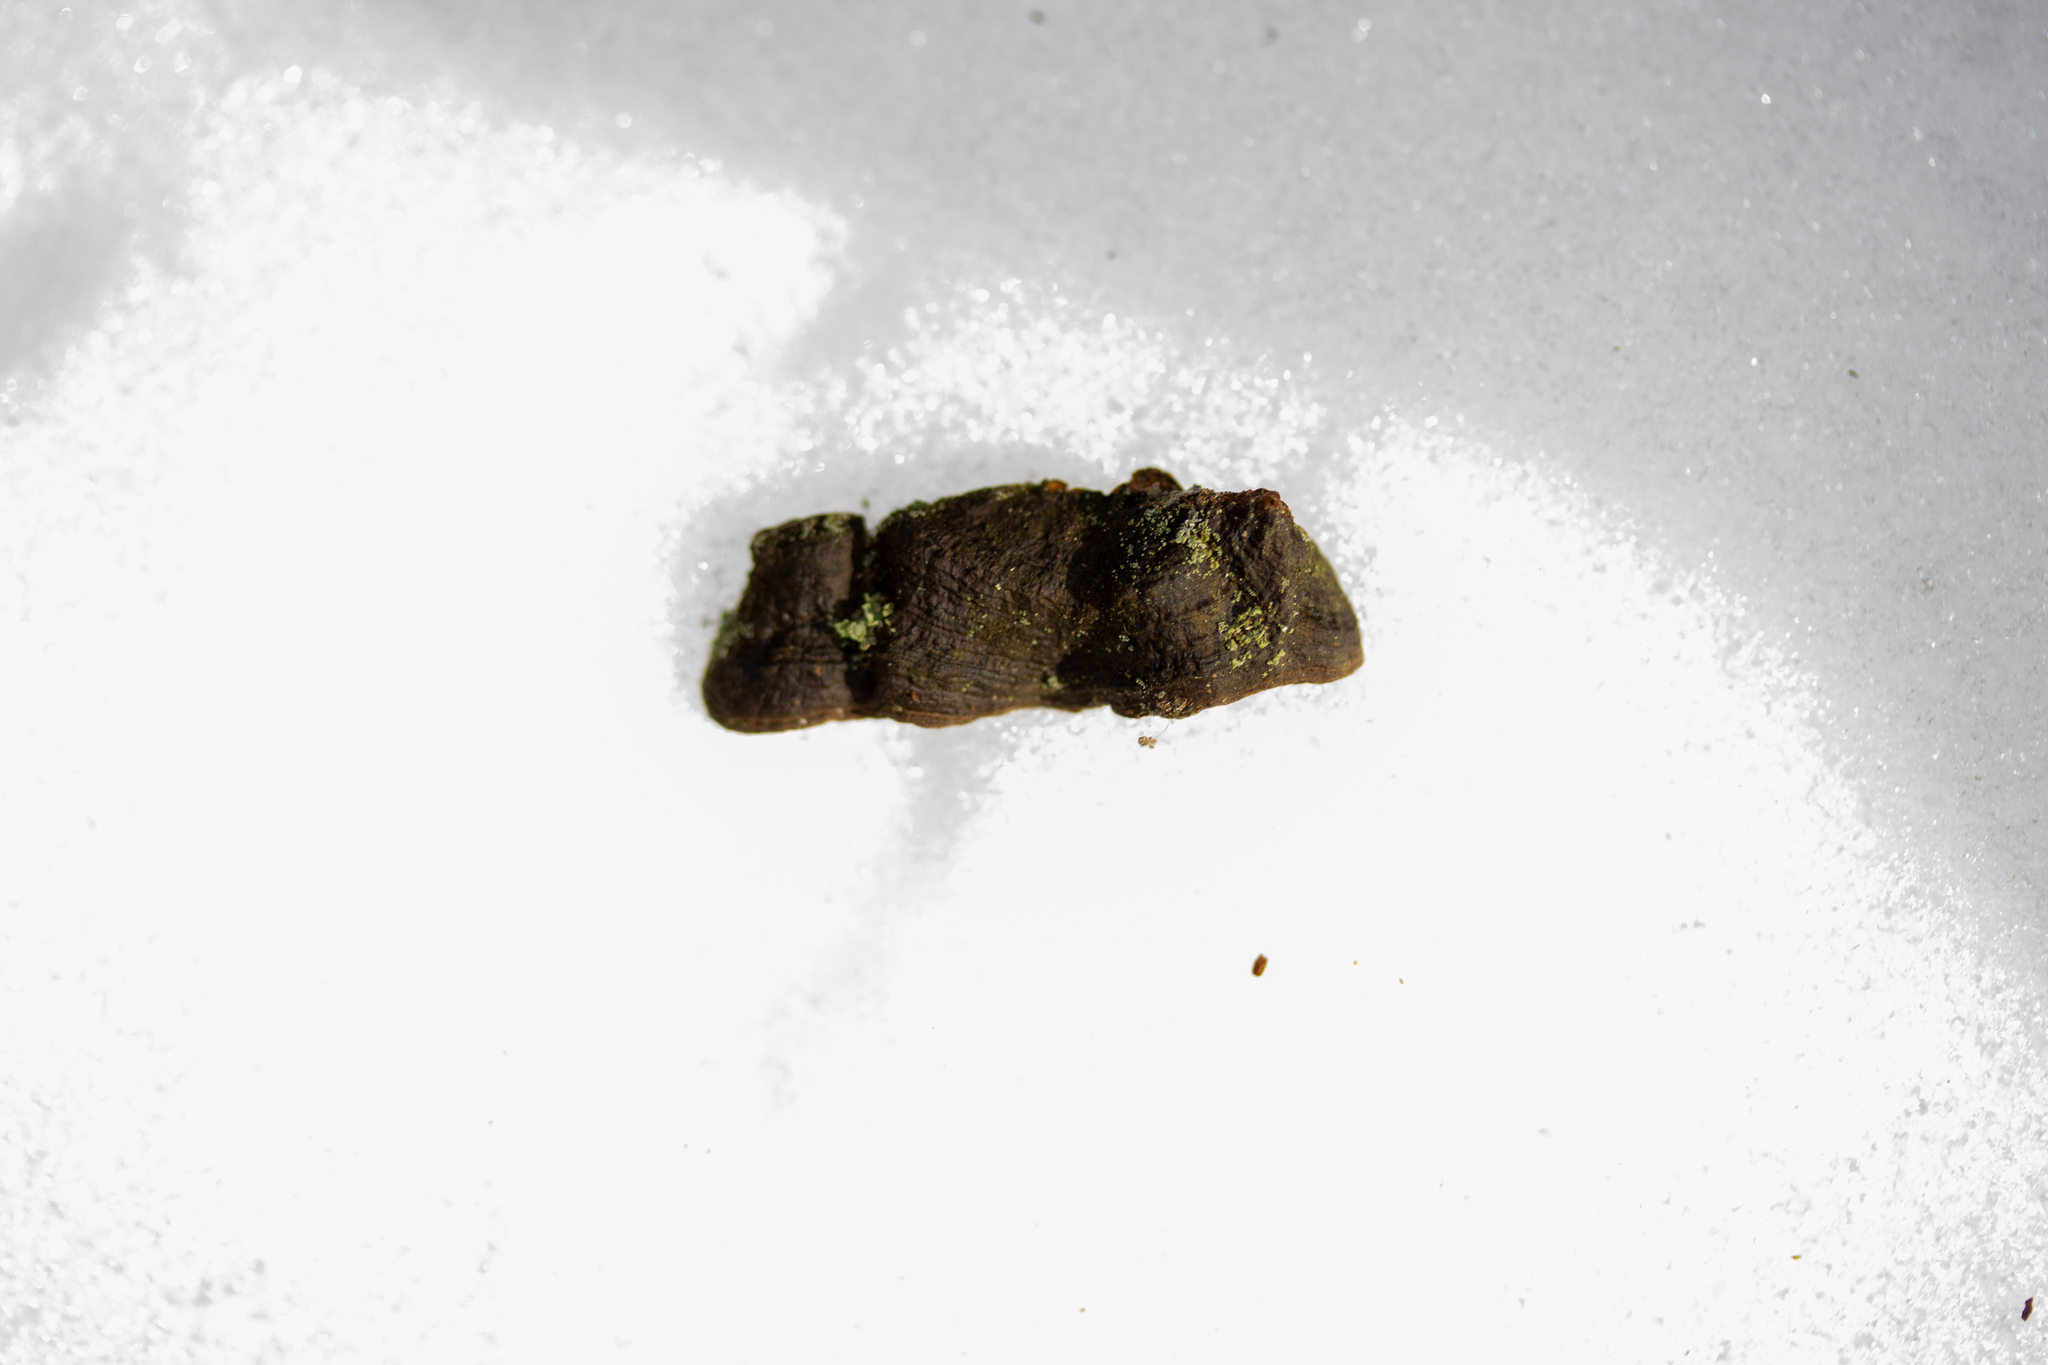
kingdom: Fungi
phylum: Basidiomycota
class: Agaricomycetes
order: Hymenochaetales
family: Hymenochaetaceae
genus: Hymenochaete
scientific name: Hymenochaete rubiginosa
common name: Oak curtain crust
